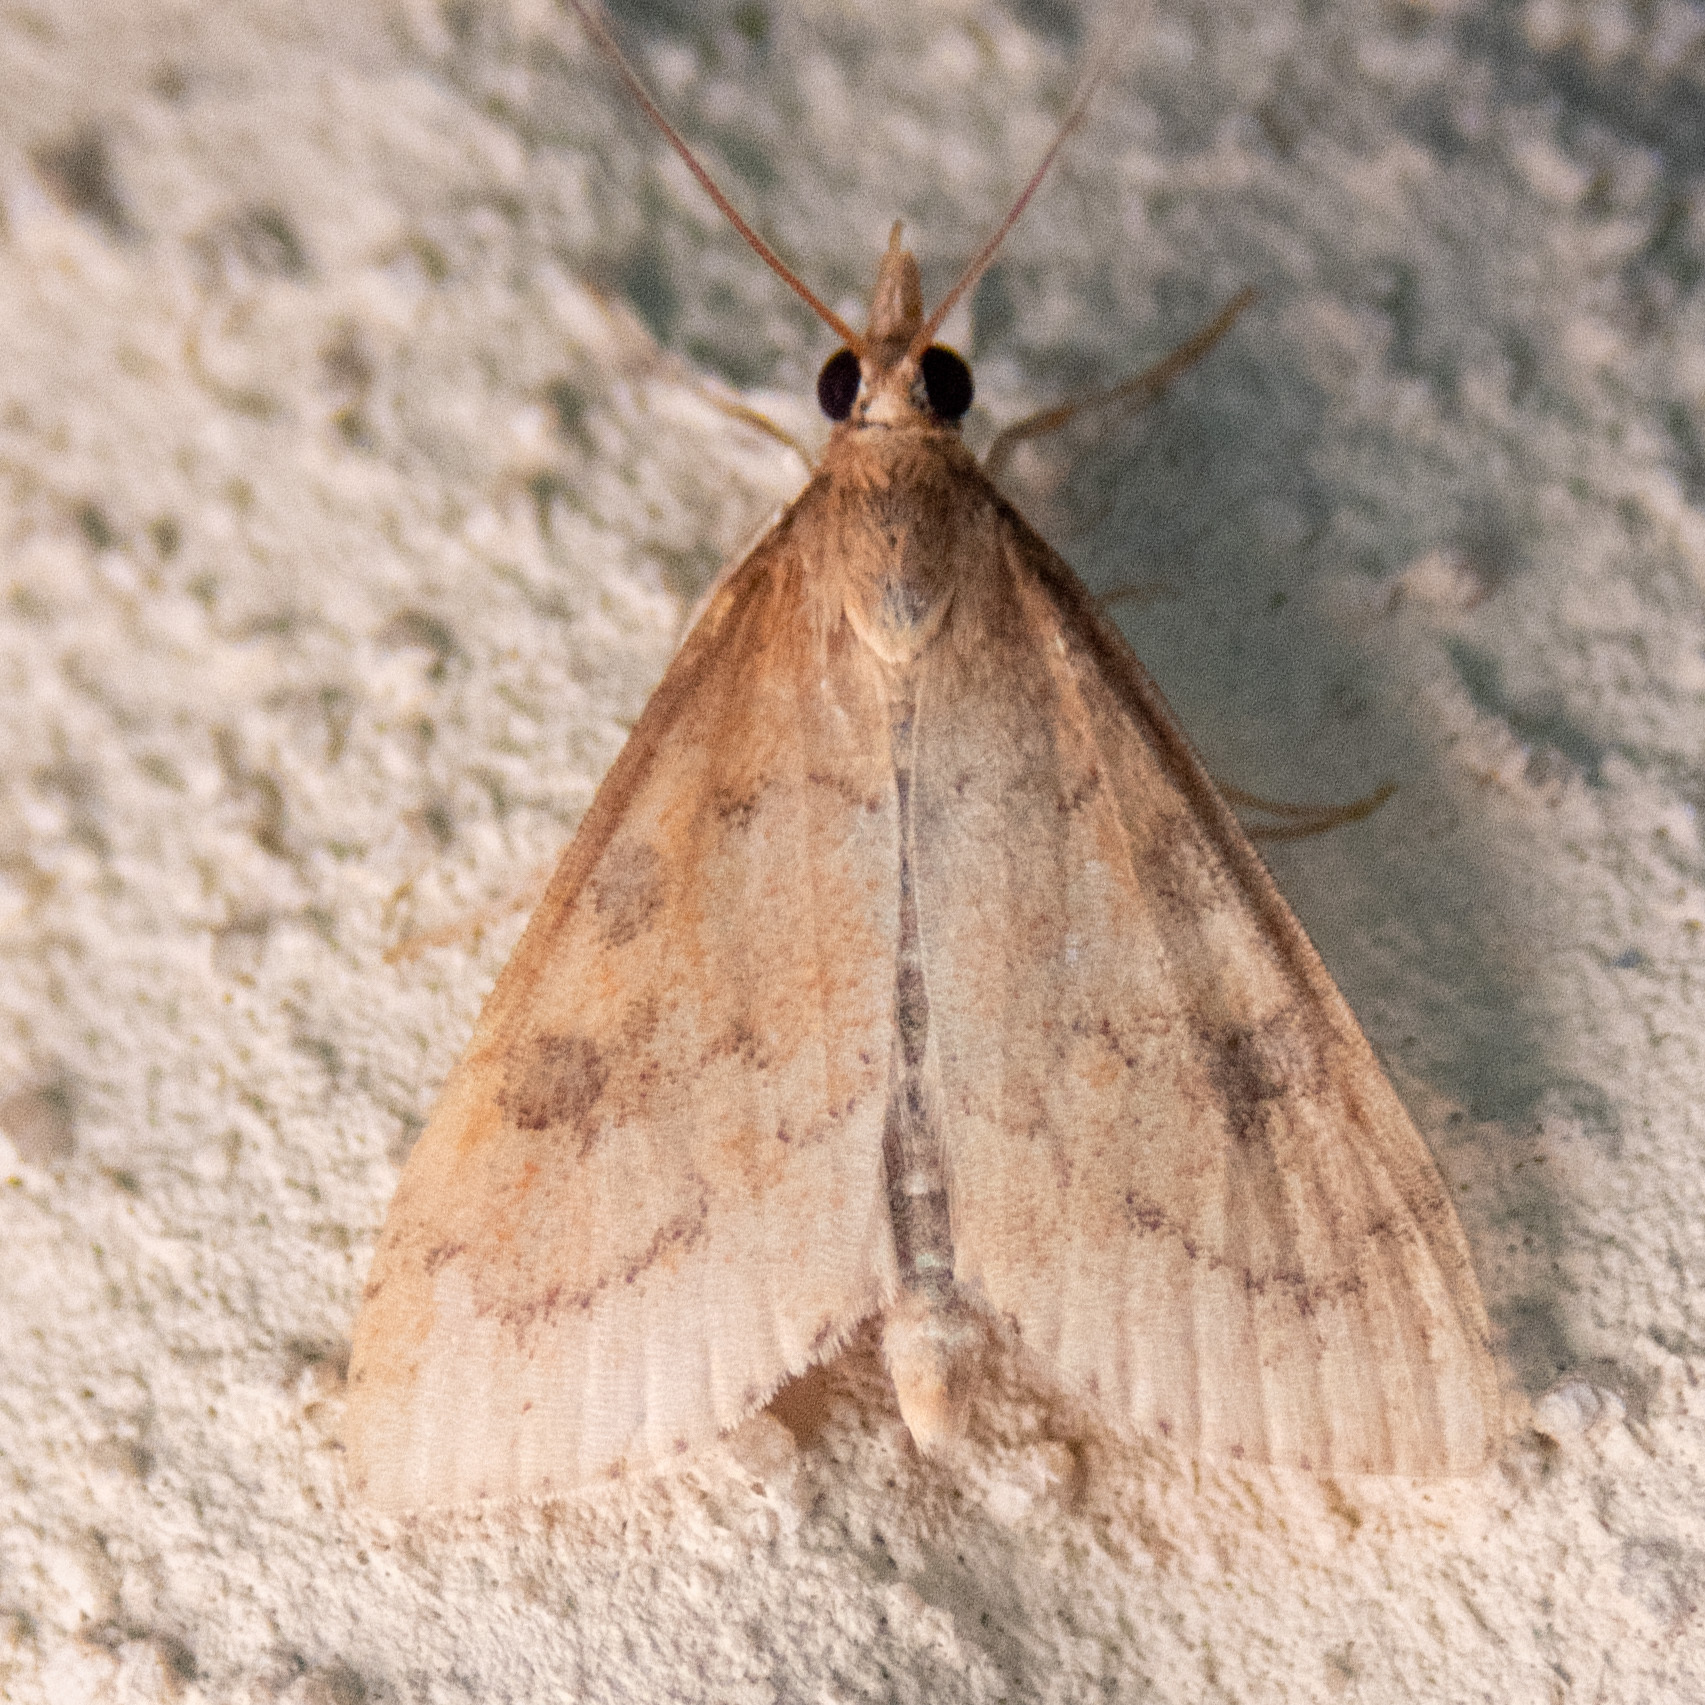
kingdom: Animalia
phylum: Arthropoda
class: Insecta
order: Lepidoptera
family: Crambidae
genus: Udea
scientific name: Udea rubigalis
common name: Celery leaftier moth
